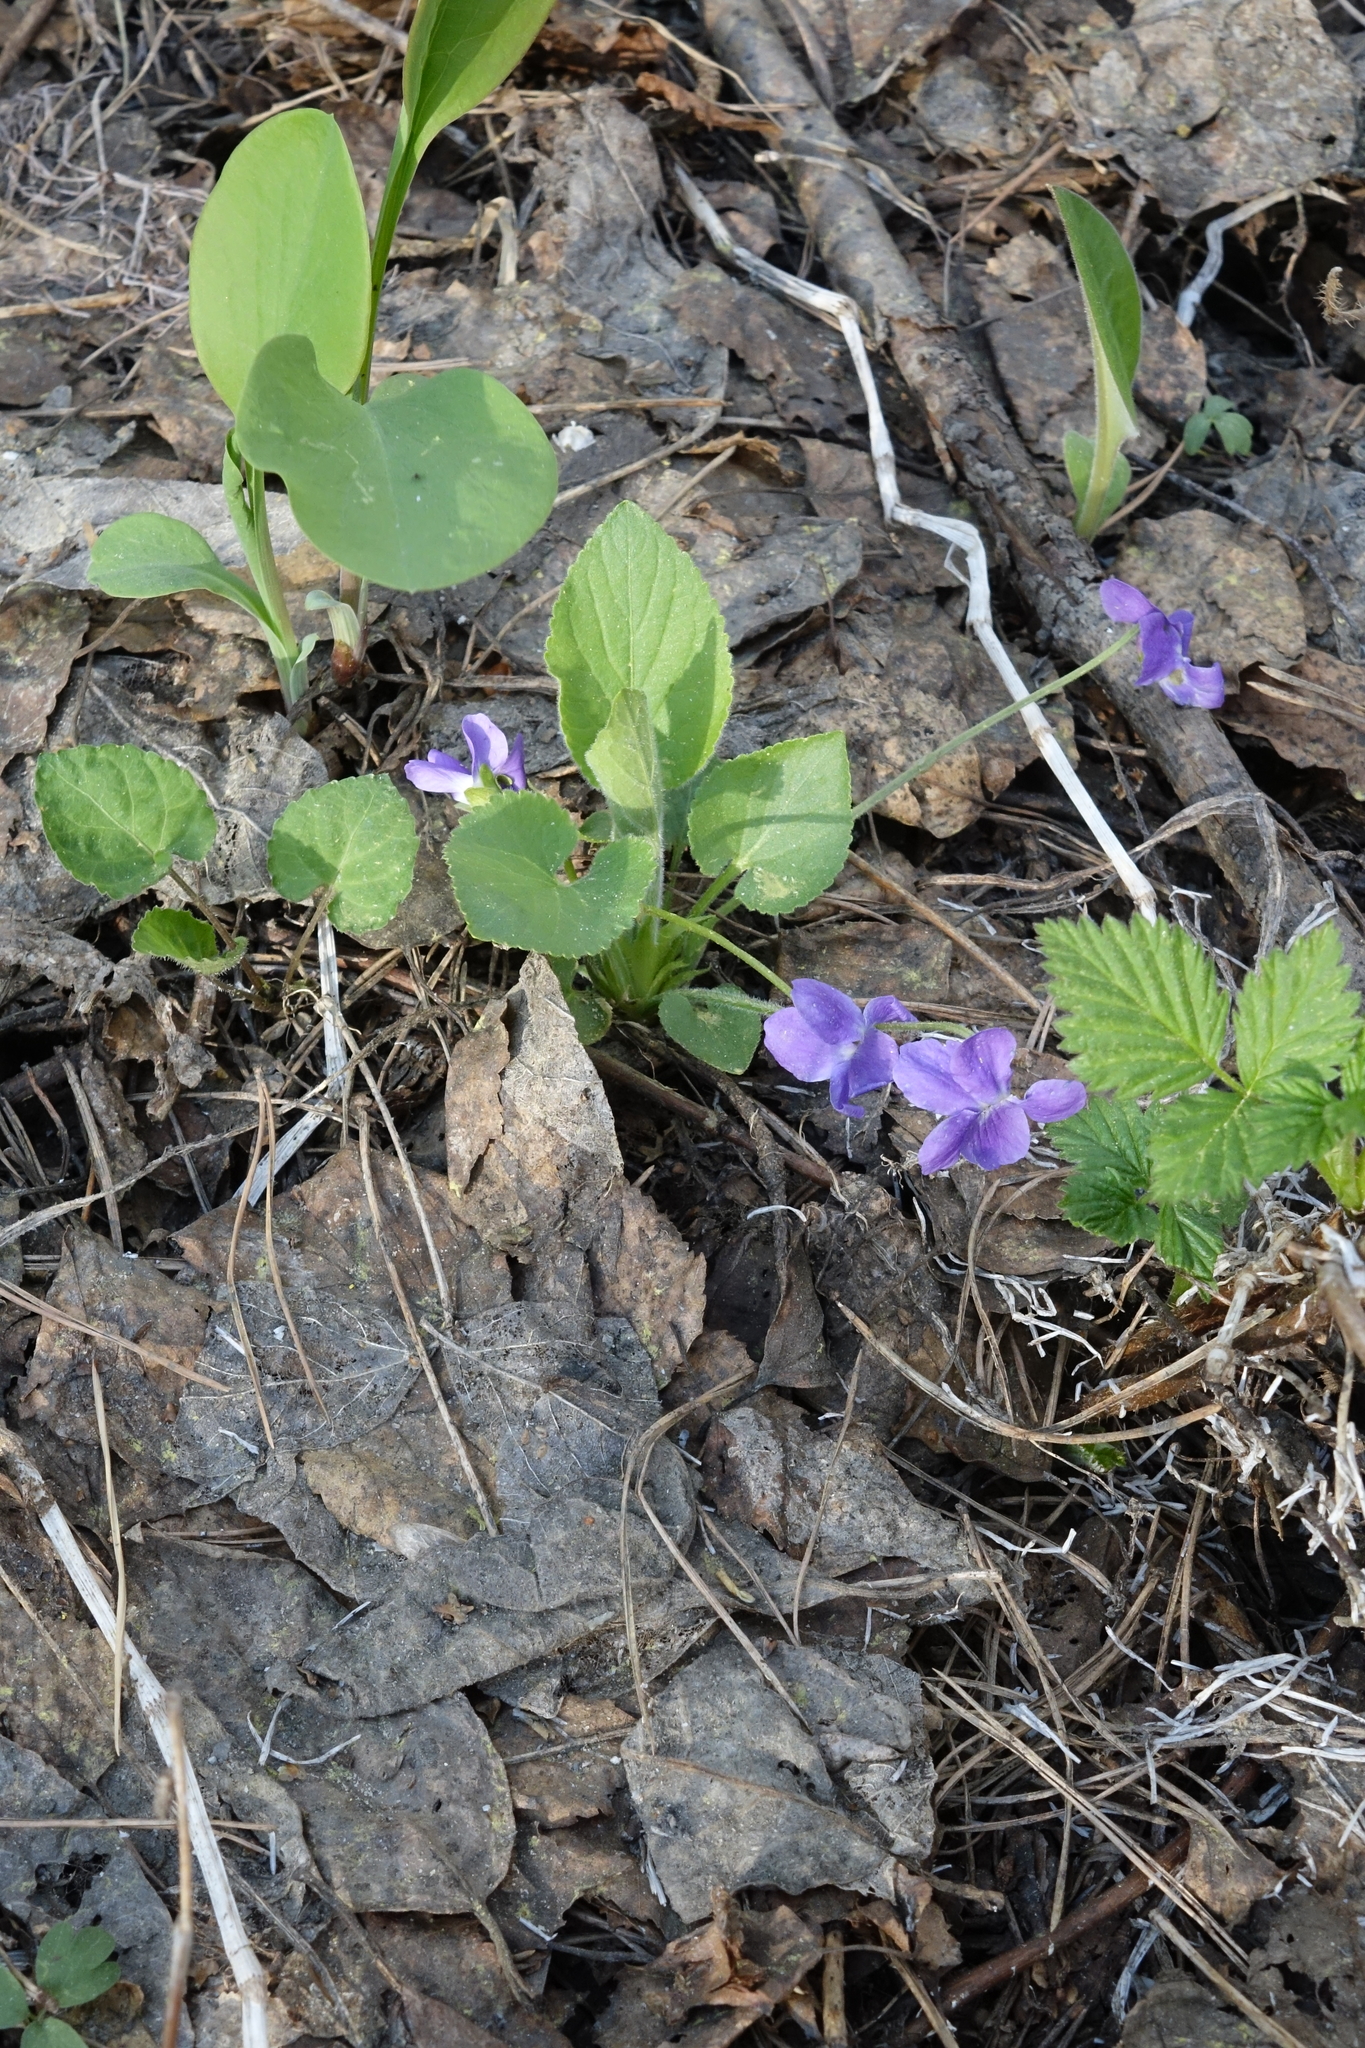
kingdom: Plantae
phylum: Tracheophyta
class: Magnoliopsida
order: Malpighiales
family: Violaceae
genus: Viola
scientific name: Viola hirta
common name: Hairy violet
